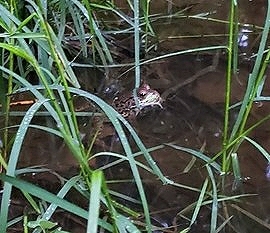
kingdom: Animalia
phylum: Chordata
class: Amphibia
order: Anura
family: Ranidae
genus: Lithobates
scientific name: Lithobates clamitans
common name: Green frog
